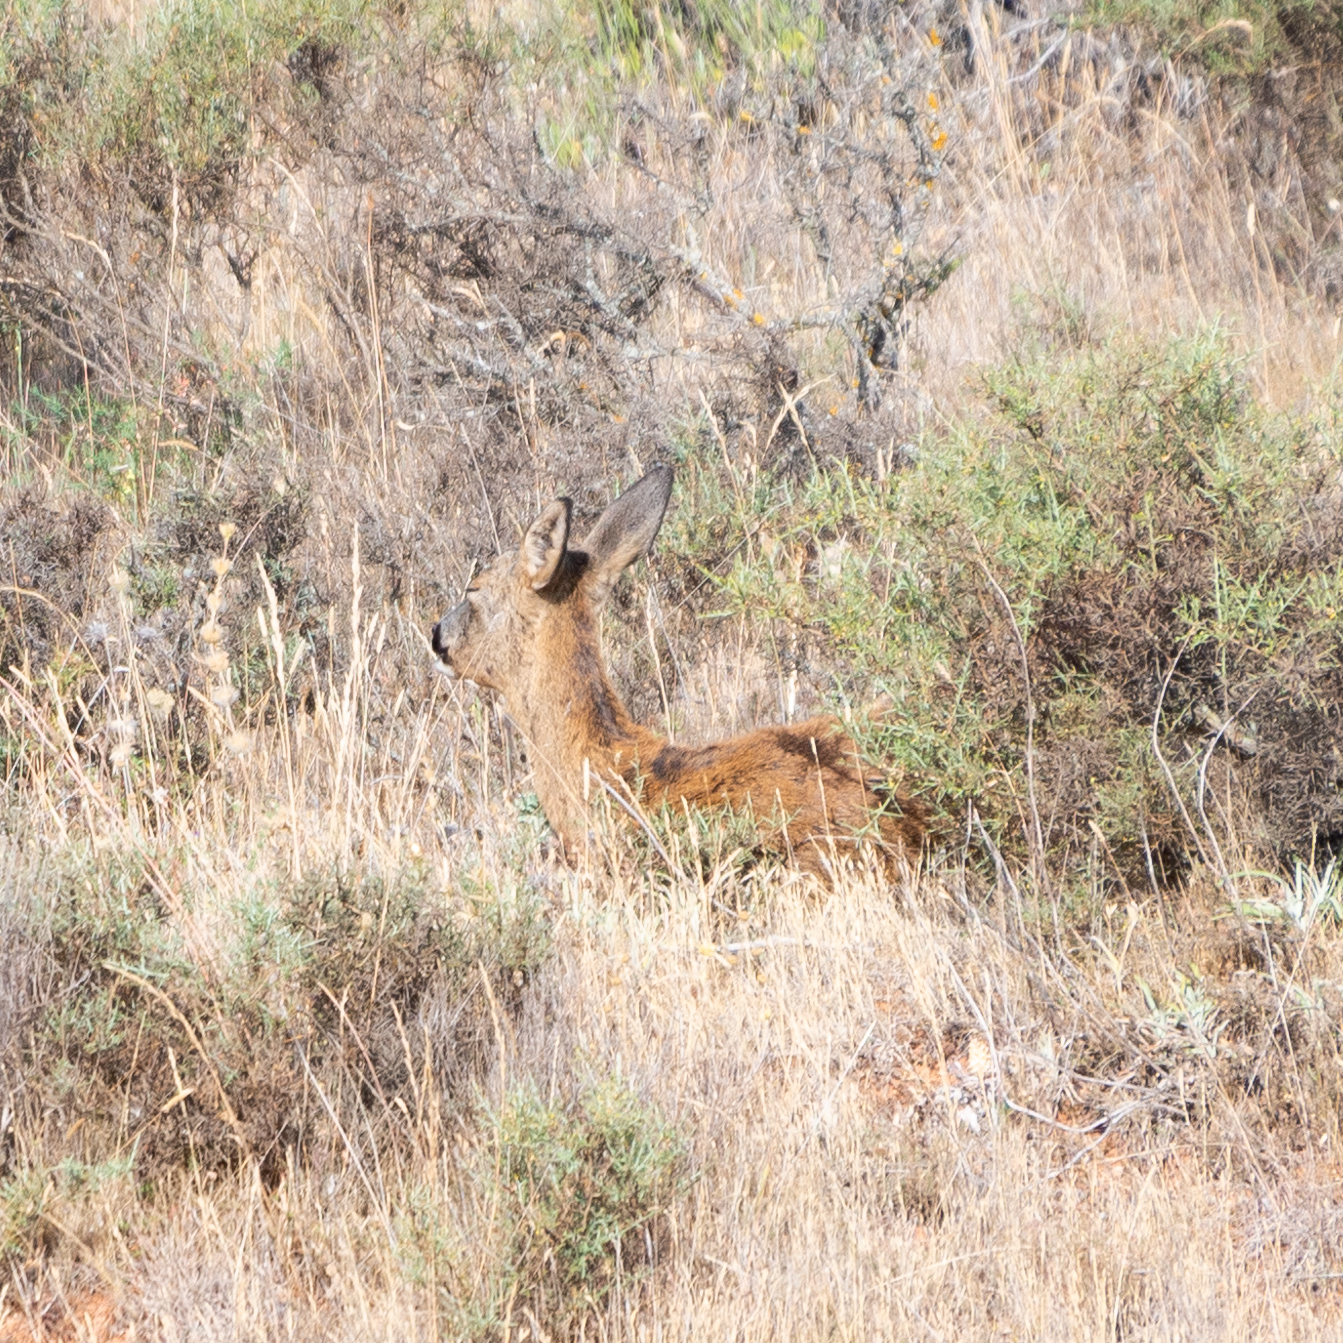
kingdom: Animalia
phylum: Chordata
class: Mammalia
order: Artiodactyla
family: Cervidae
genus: Capreolus
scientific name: Capreolus capreolus
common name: Western roe deer
